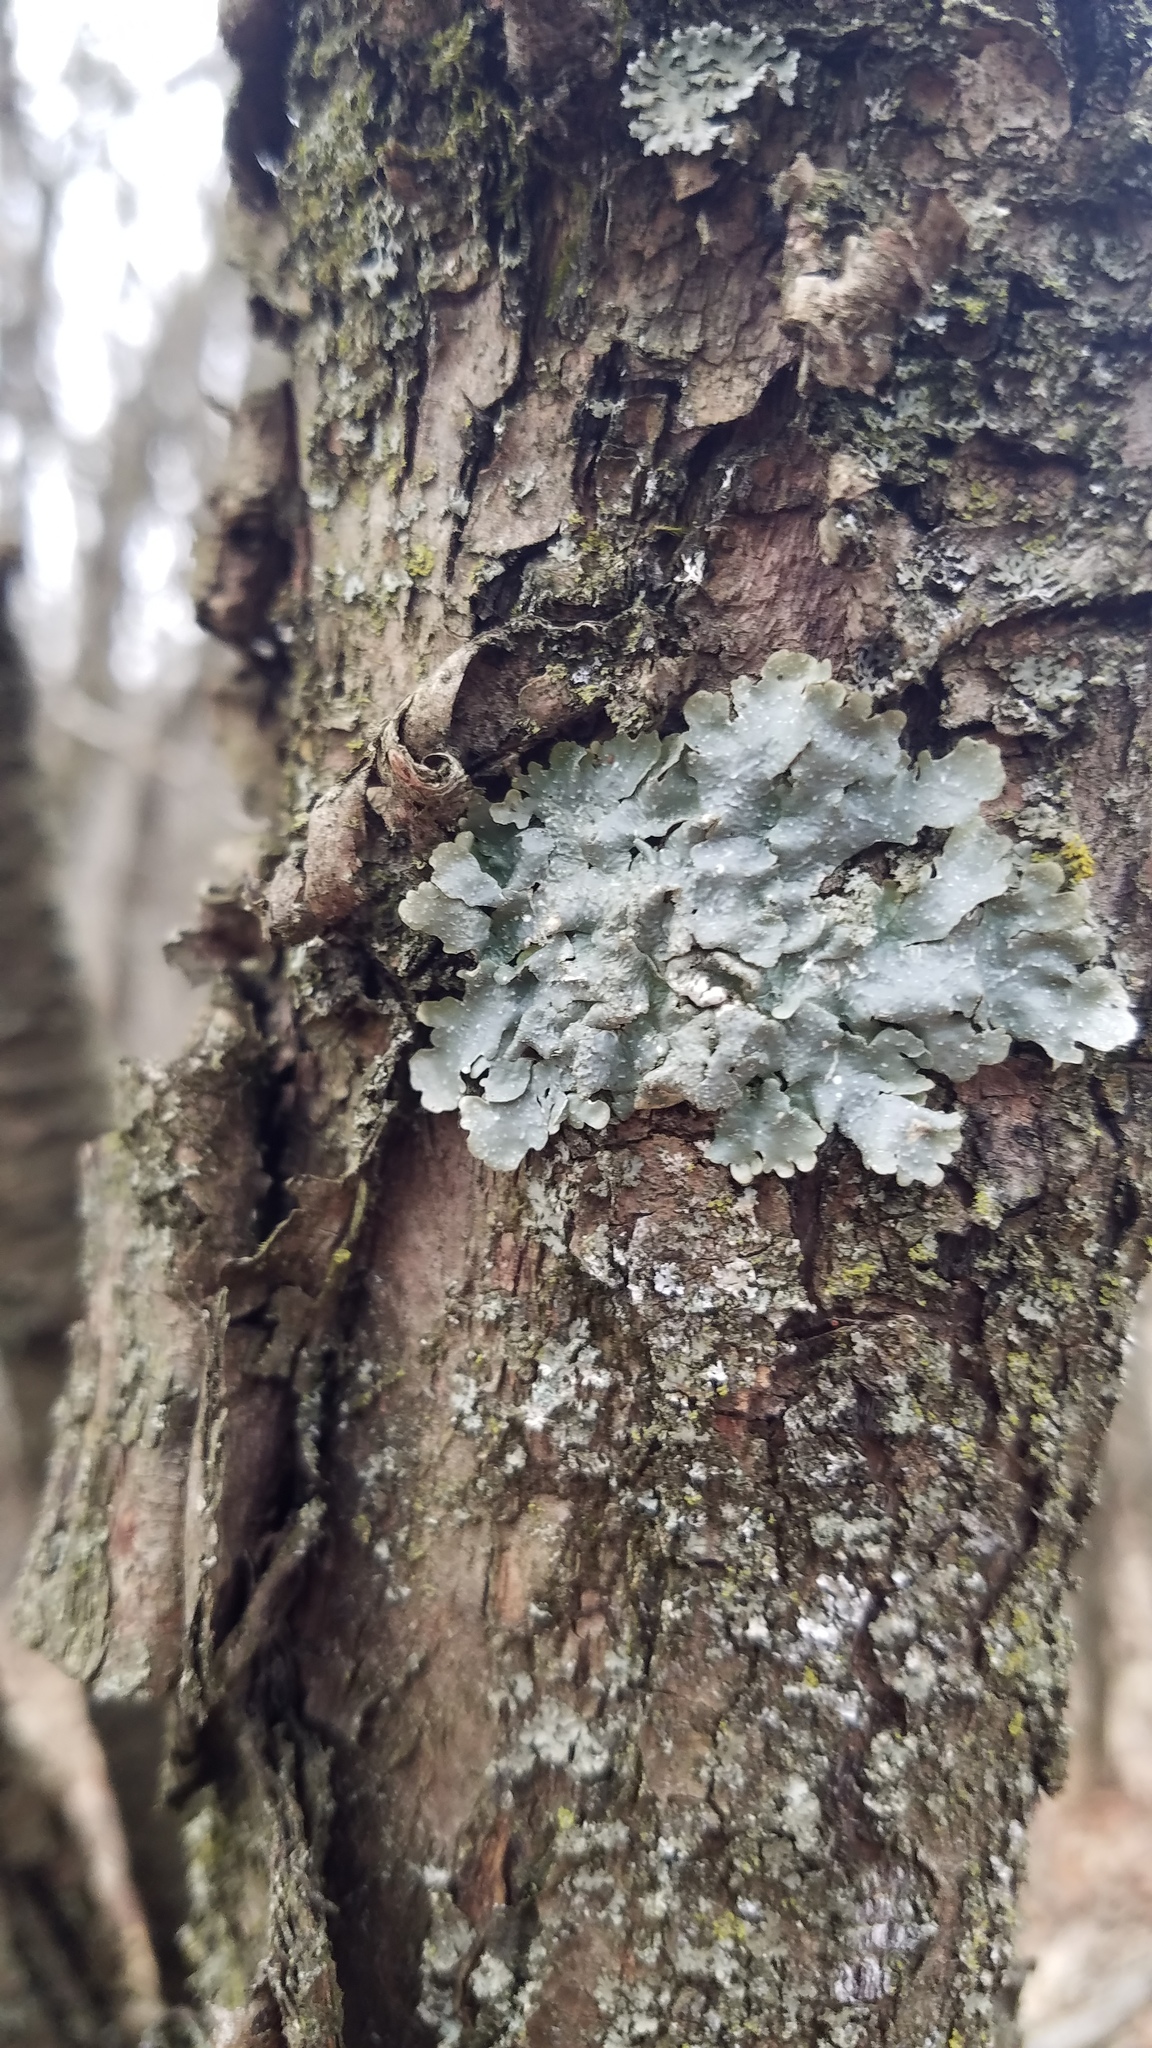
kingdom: Fungi
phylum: Ascomycota
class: Lecanoromycetes
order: Lecanorales
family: Parmeliaceae
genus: Punctelia
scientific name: Punctelia rudecta
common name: Rough speckled shield lichen
